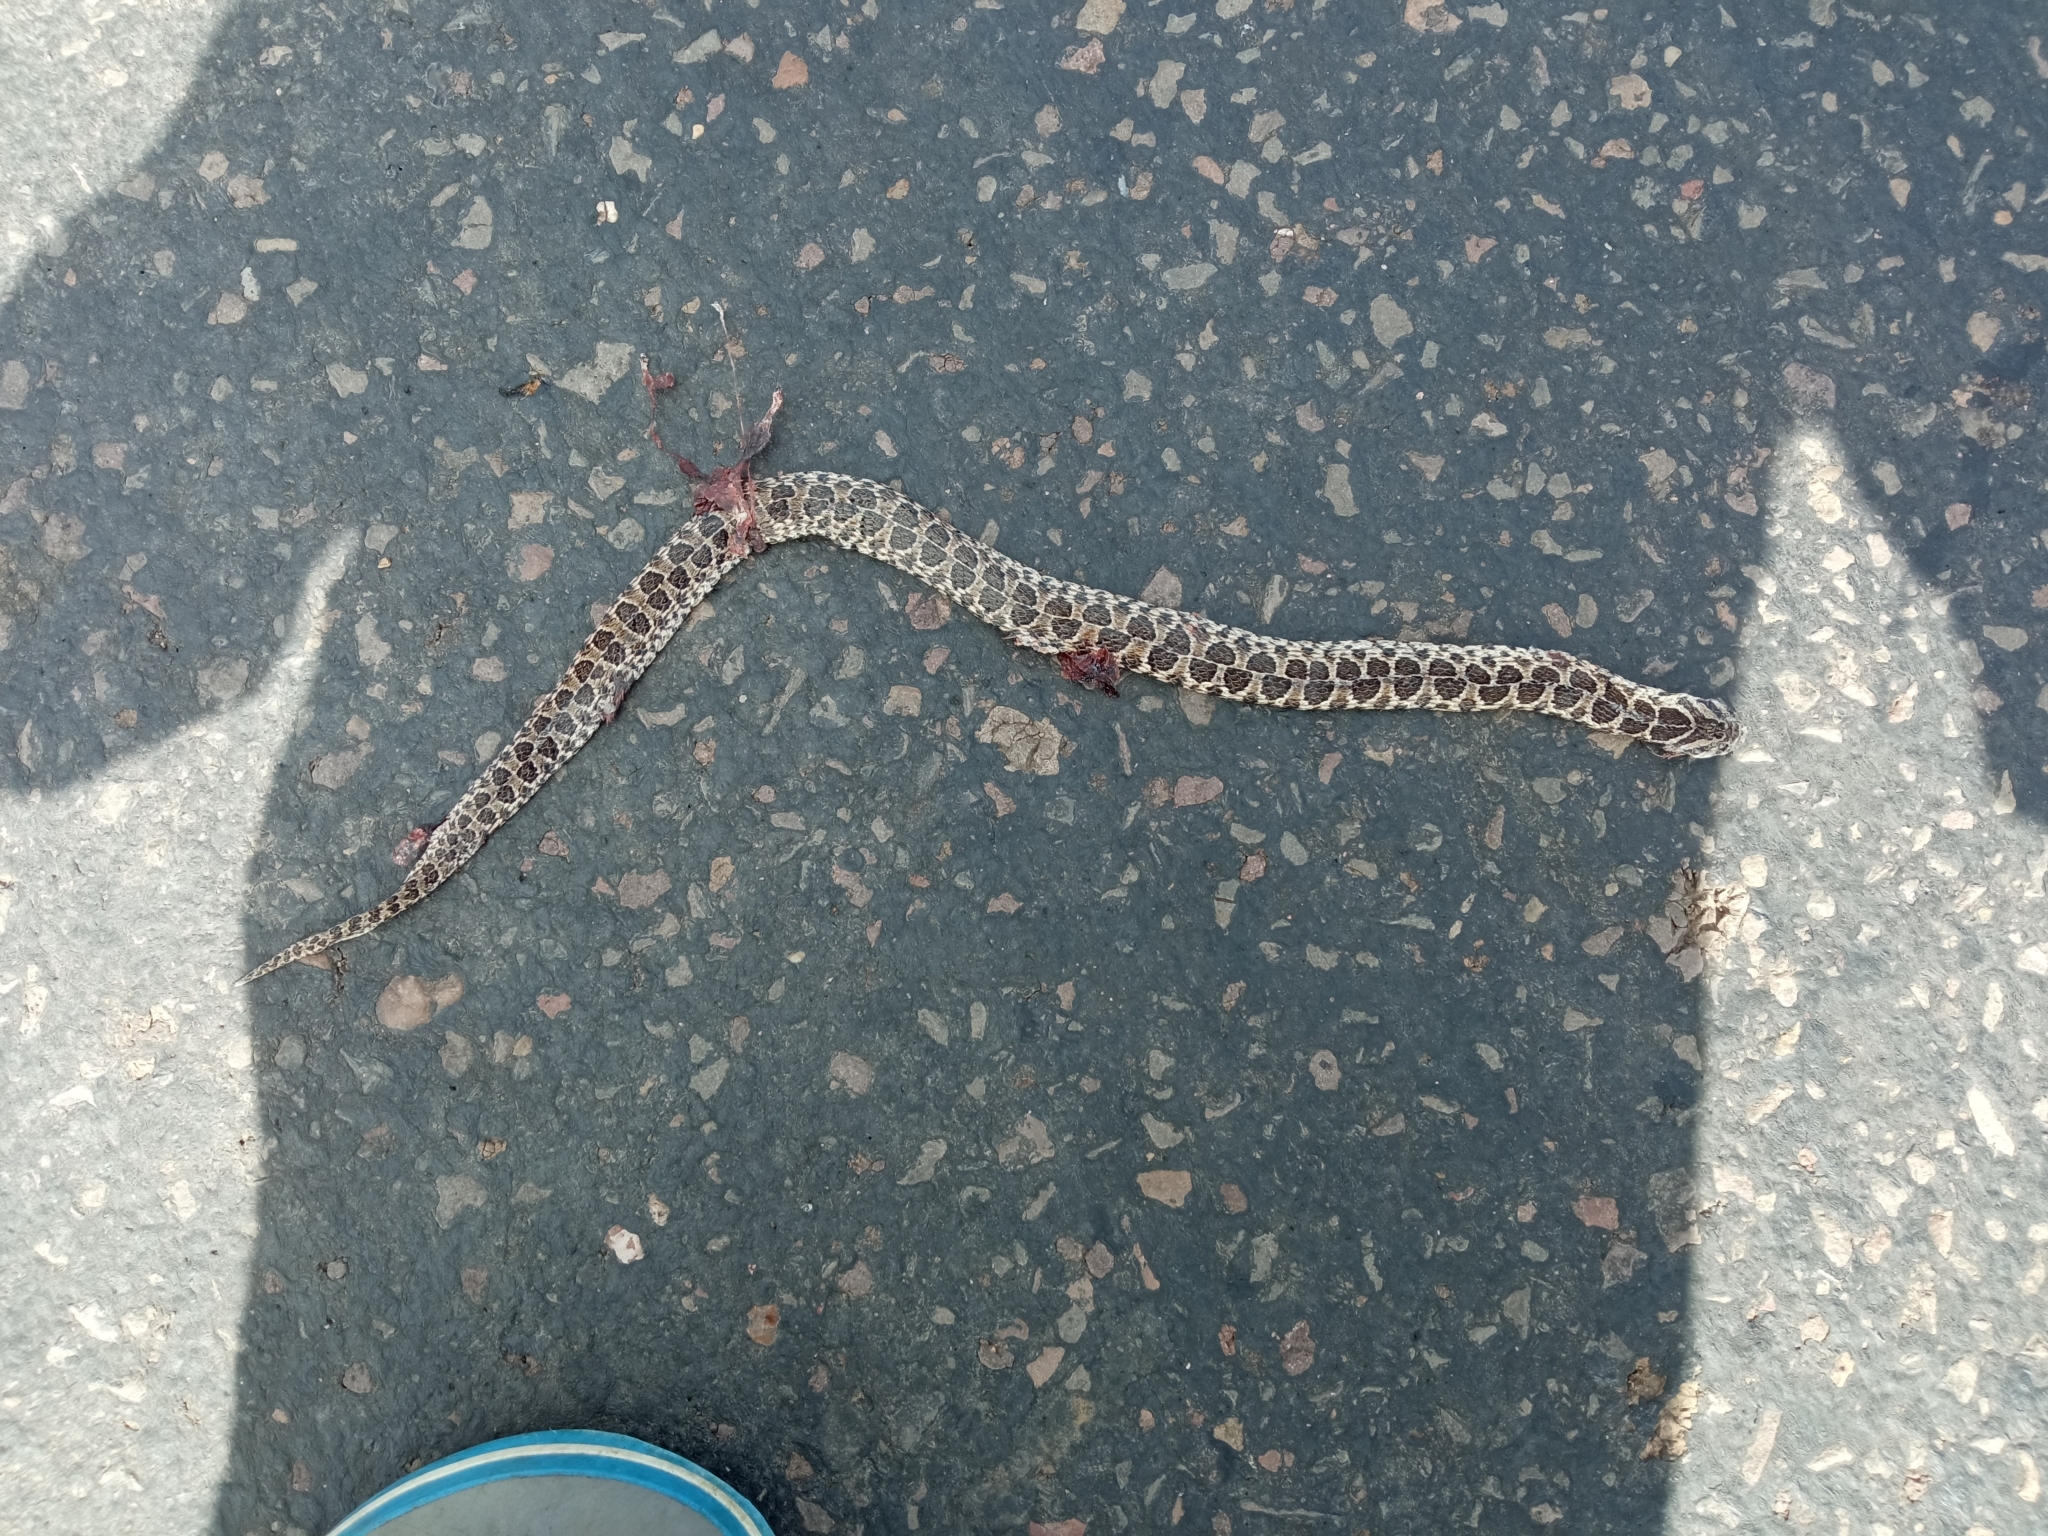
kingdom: Animalia
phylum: Chordata
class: Squamata
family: Colubridae
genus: Tachymenis
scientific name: Tachymenis
